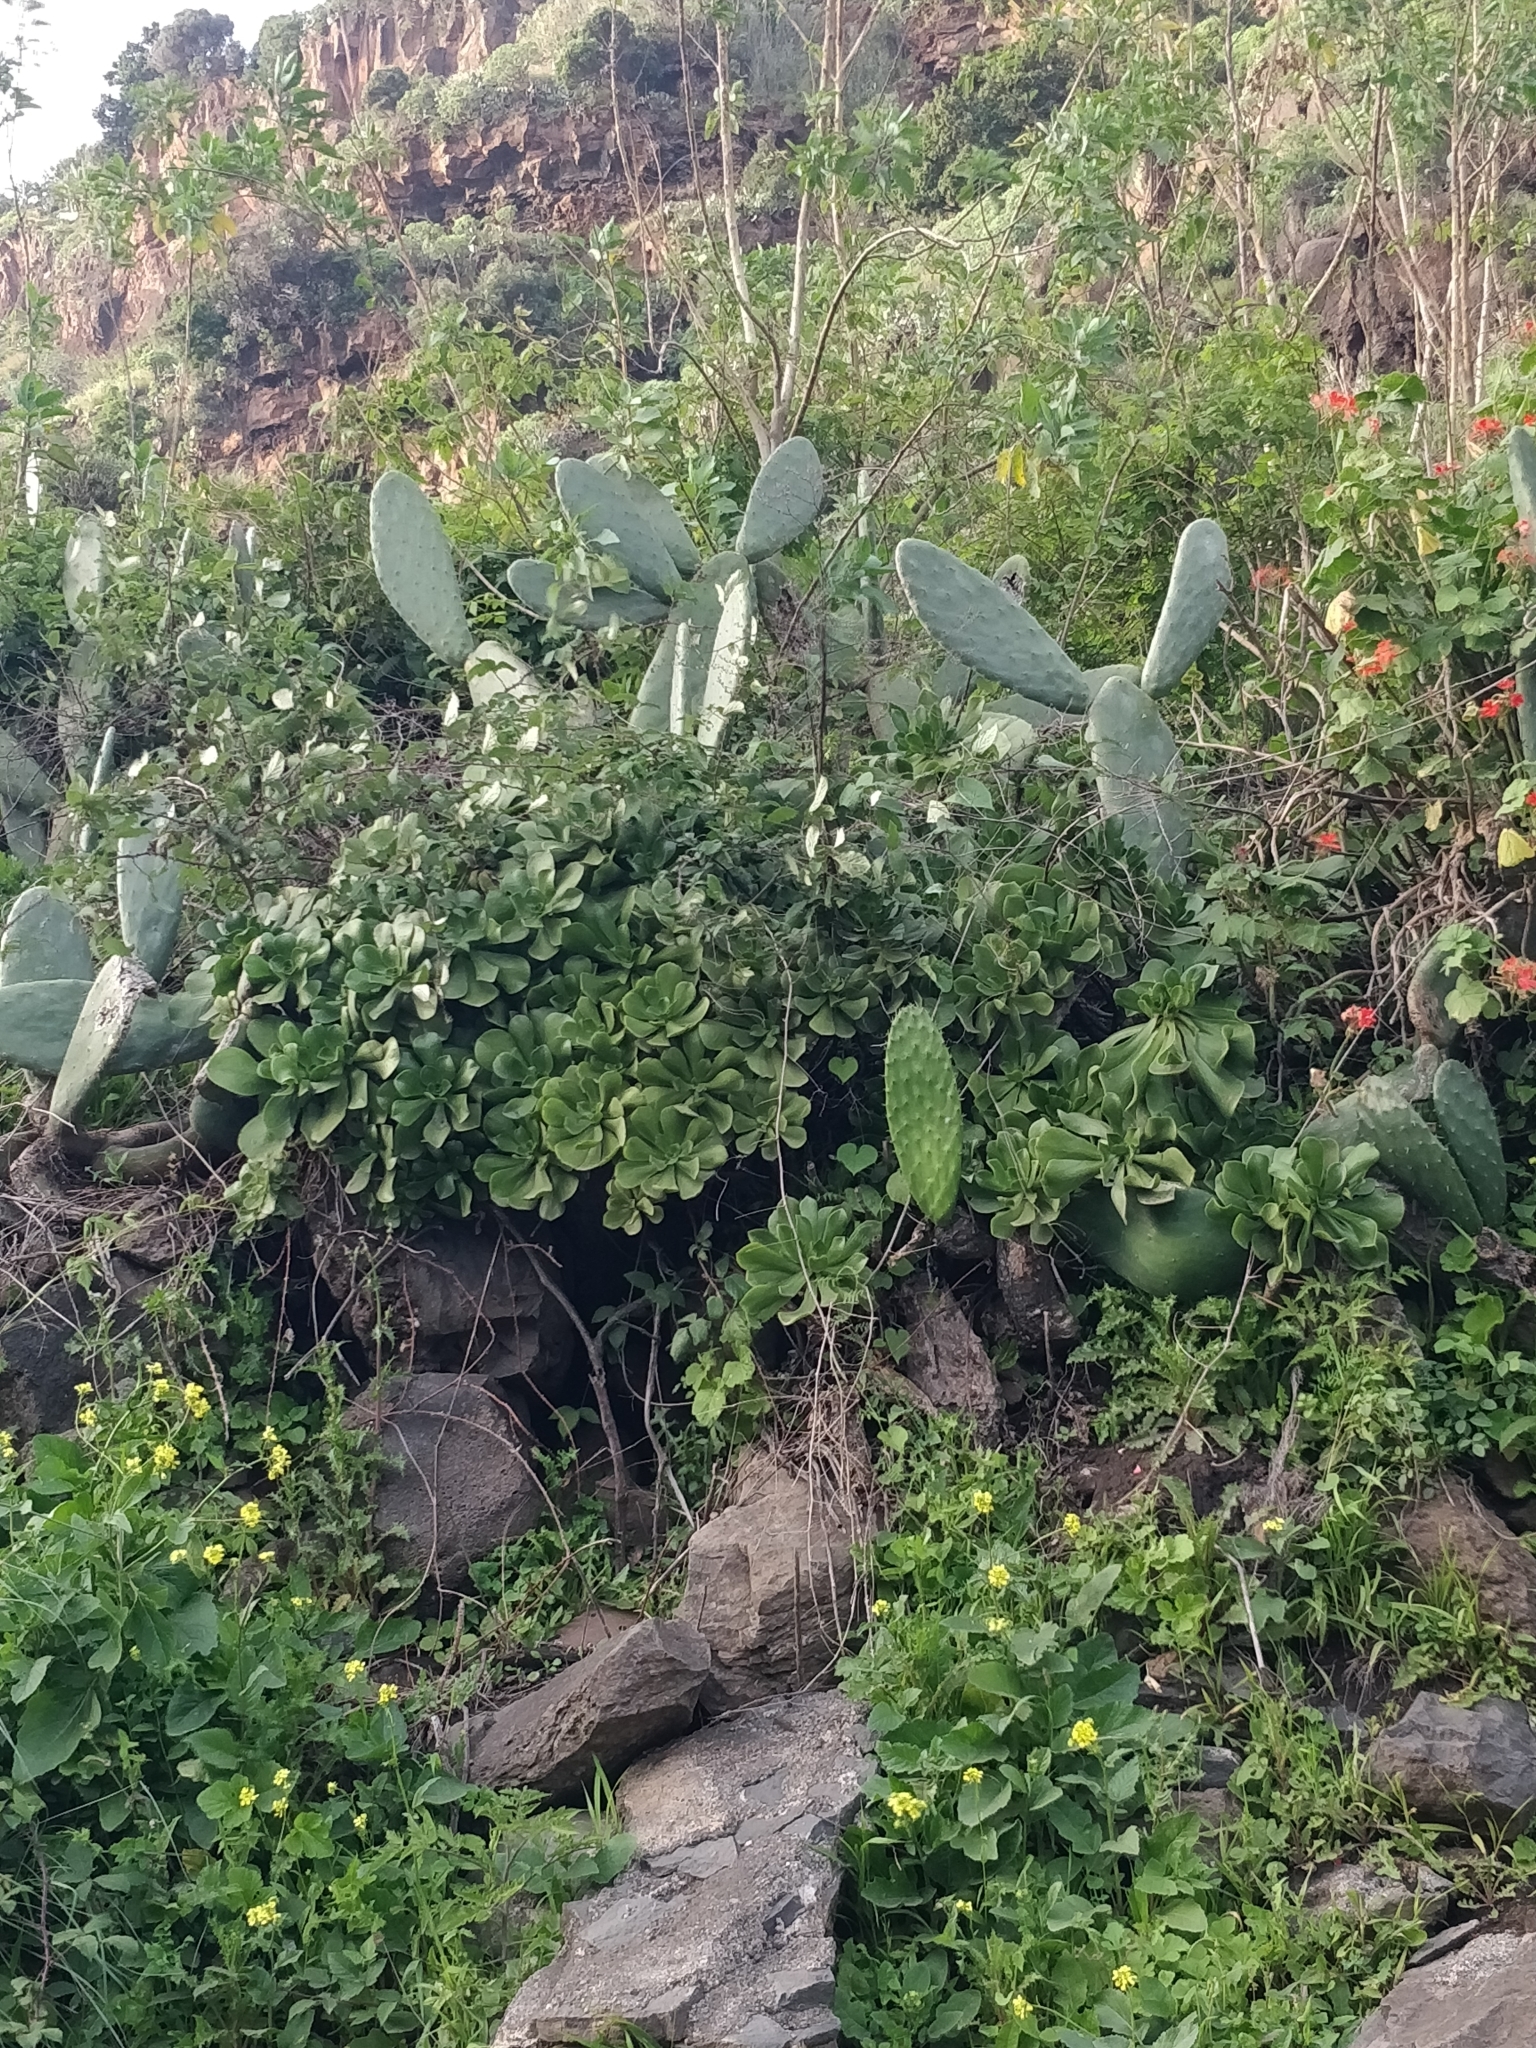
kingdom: Plantae
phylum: Tracheophyta
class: Magnoliopsida
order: Caryophyllales
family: Cactaceae
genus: Opuntia
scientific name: Opuntia ficus-indica
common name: Barbary fig
